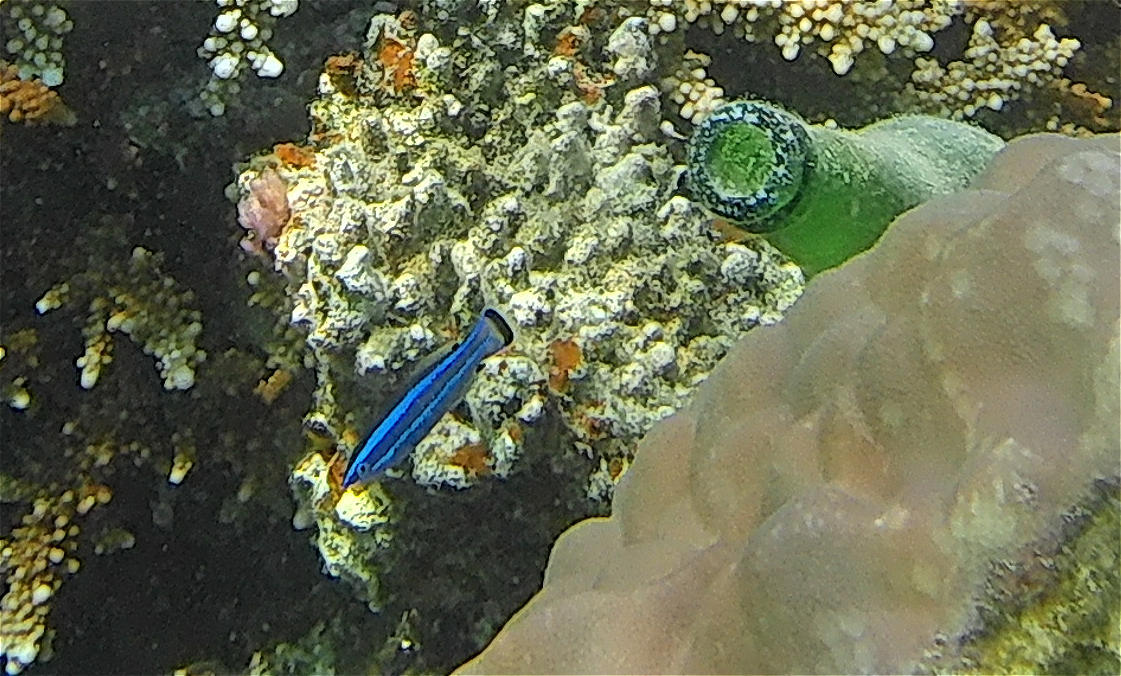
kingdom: Animalia
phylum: Chordata
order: Perciformes
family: Labridae
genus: Larabicus
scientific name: Larabicus quadrilineatus
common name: Fourline wrasse
